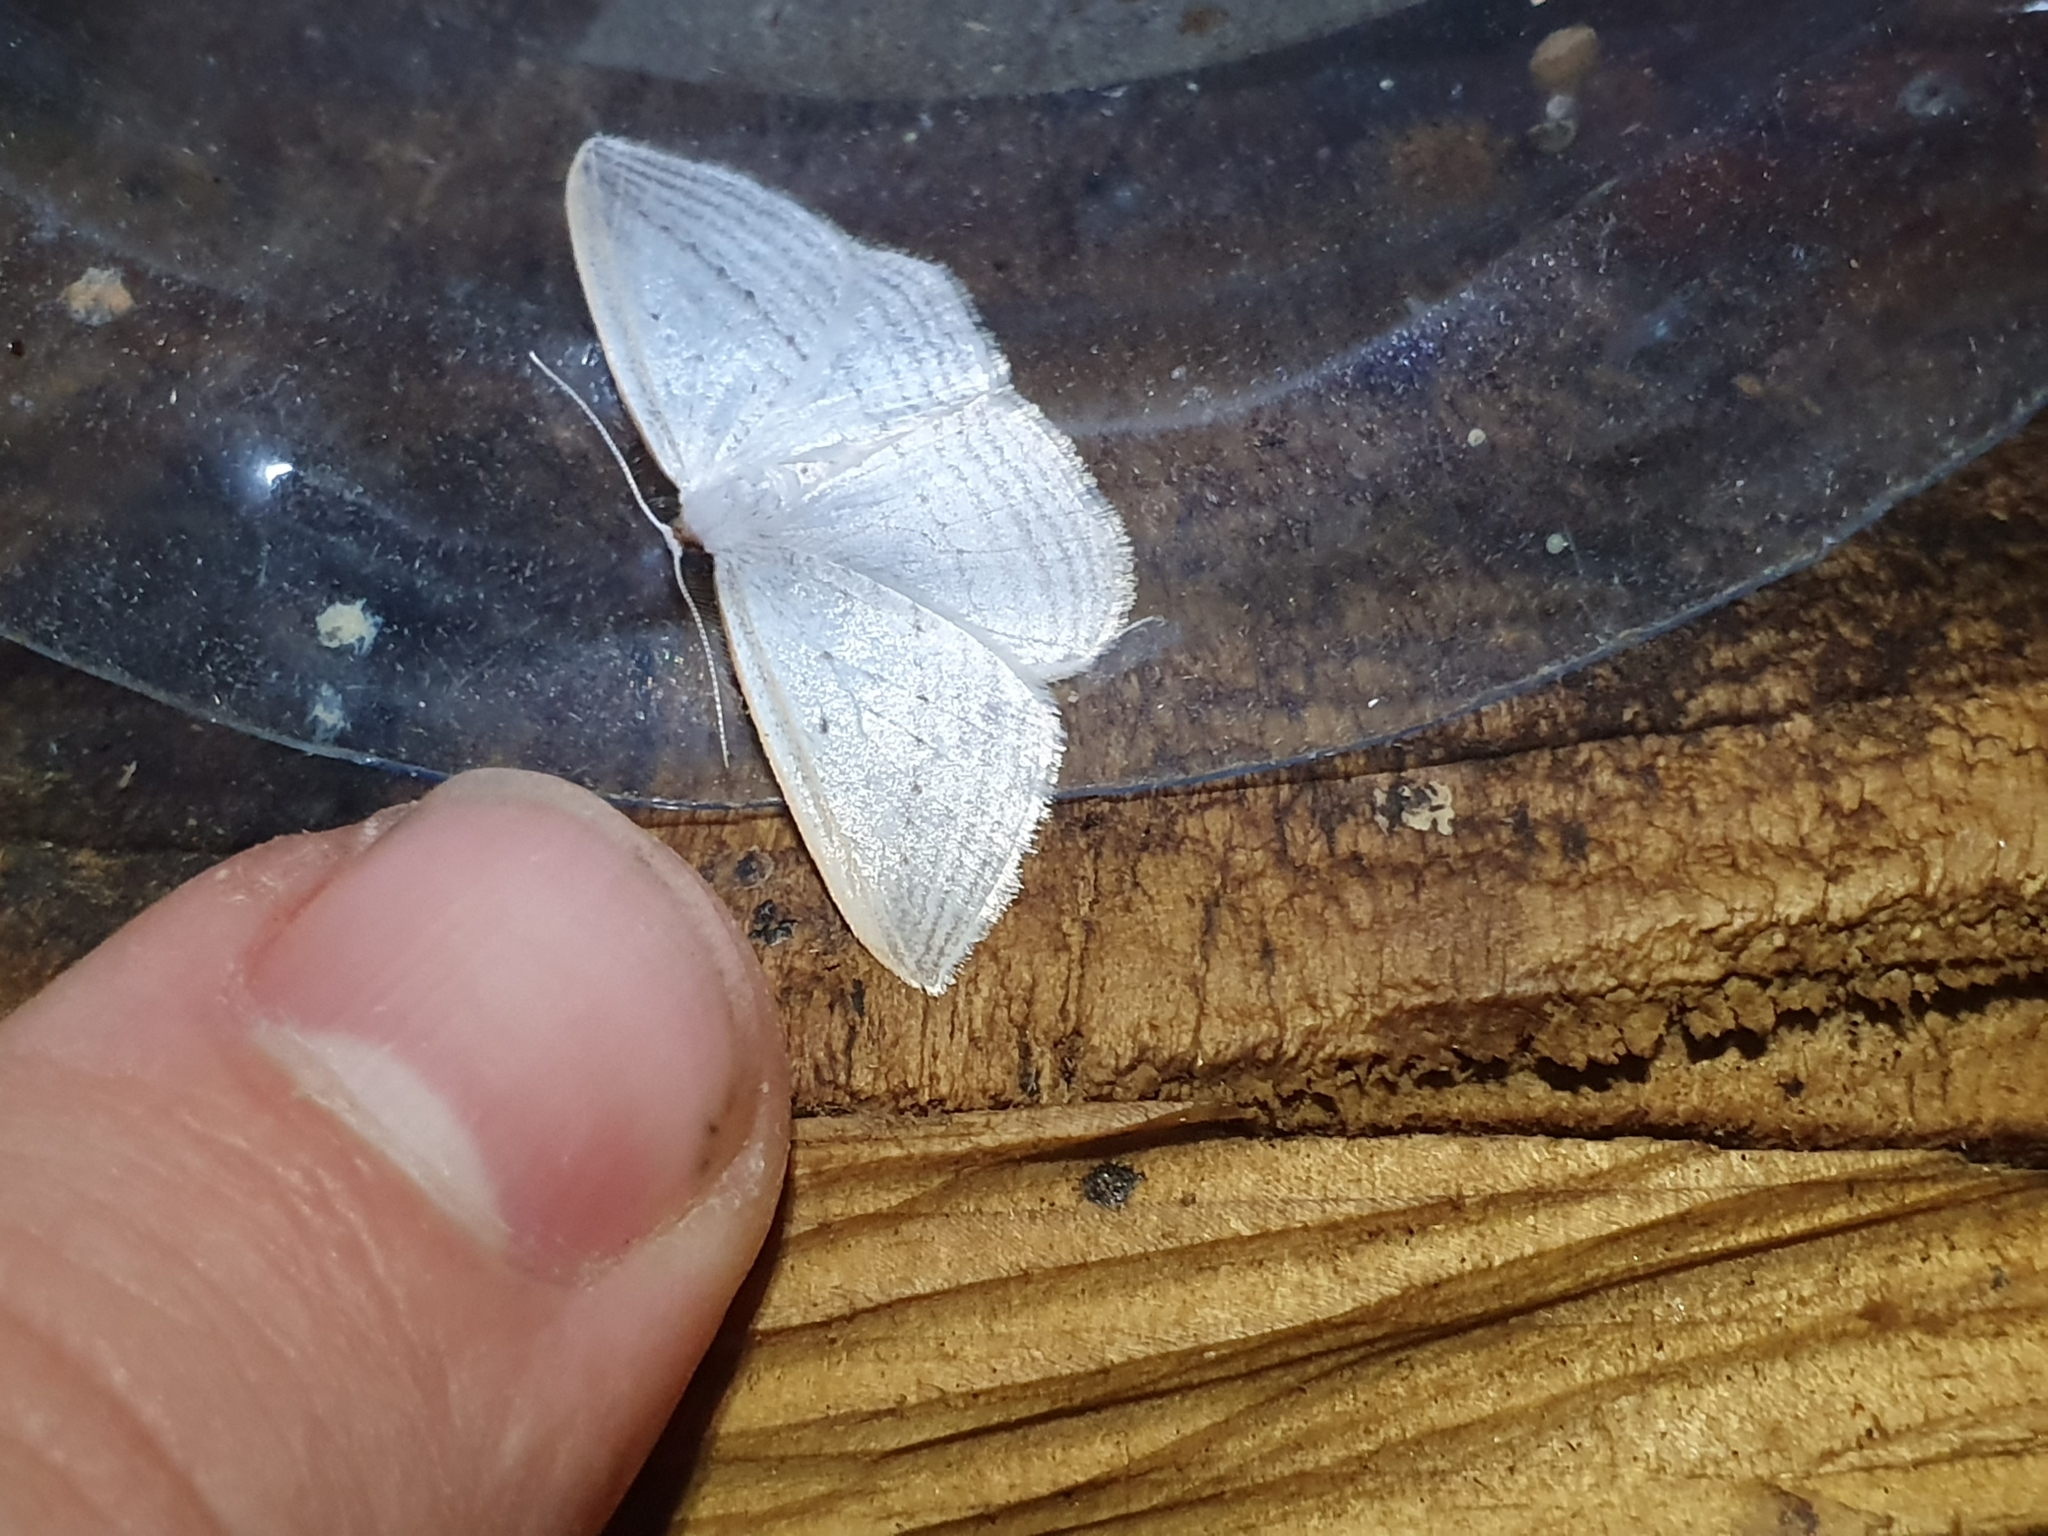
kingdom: Animalia
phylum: Arthropoda
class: Insecta
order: Lepidoptera
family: Geometridae
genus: Orthoclydon
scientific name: Orthoclydon praefectata
